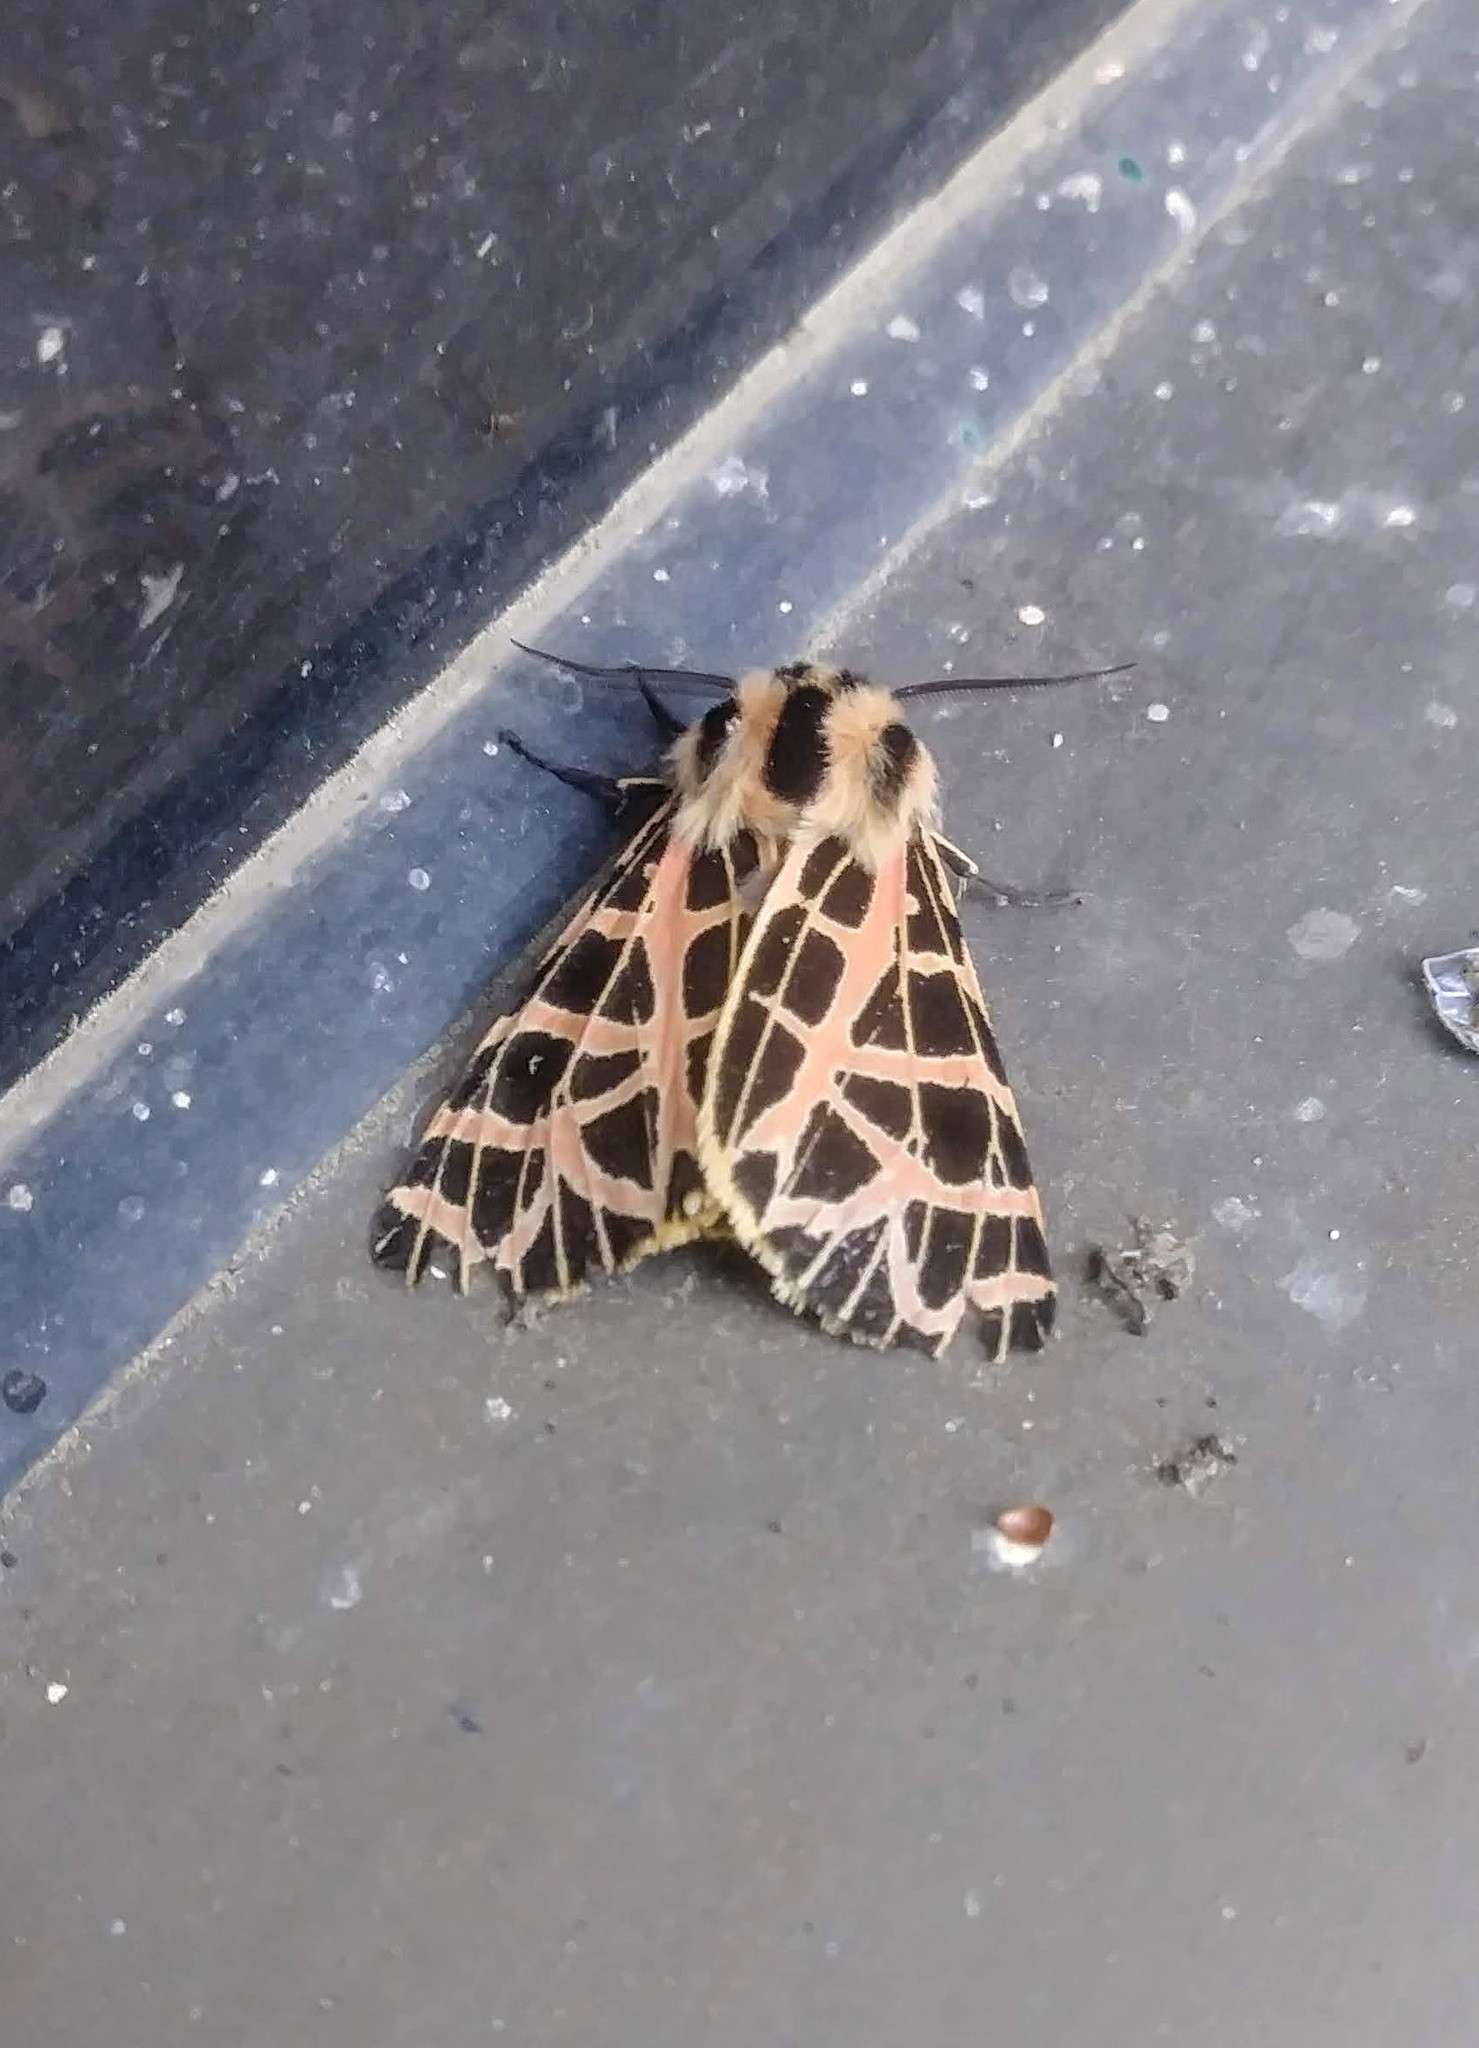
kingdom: Animalia
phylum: Arthropoda
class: Insecta
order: Lepidoptera
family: Erebidae
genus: Apantesis
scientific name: Apantesis
